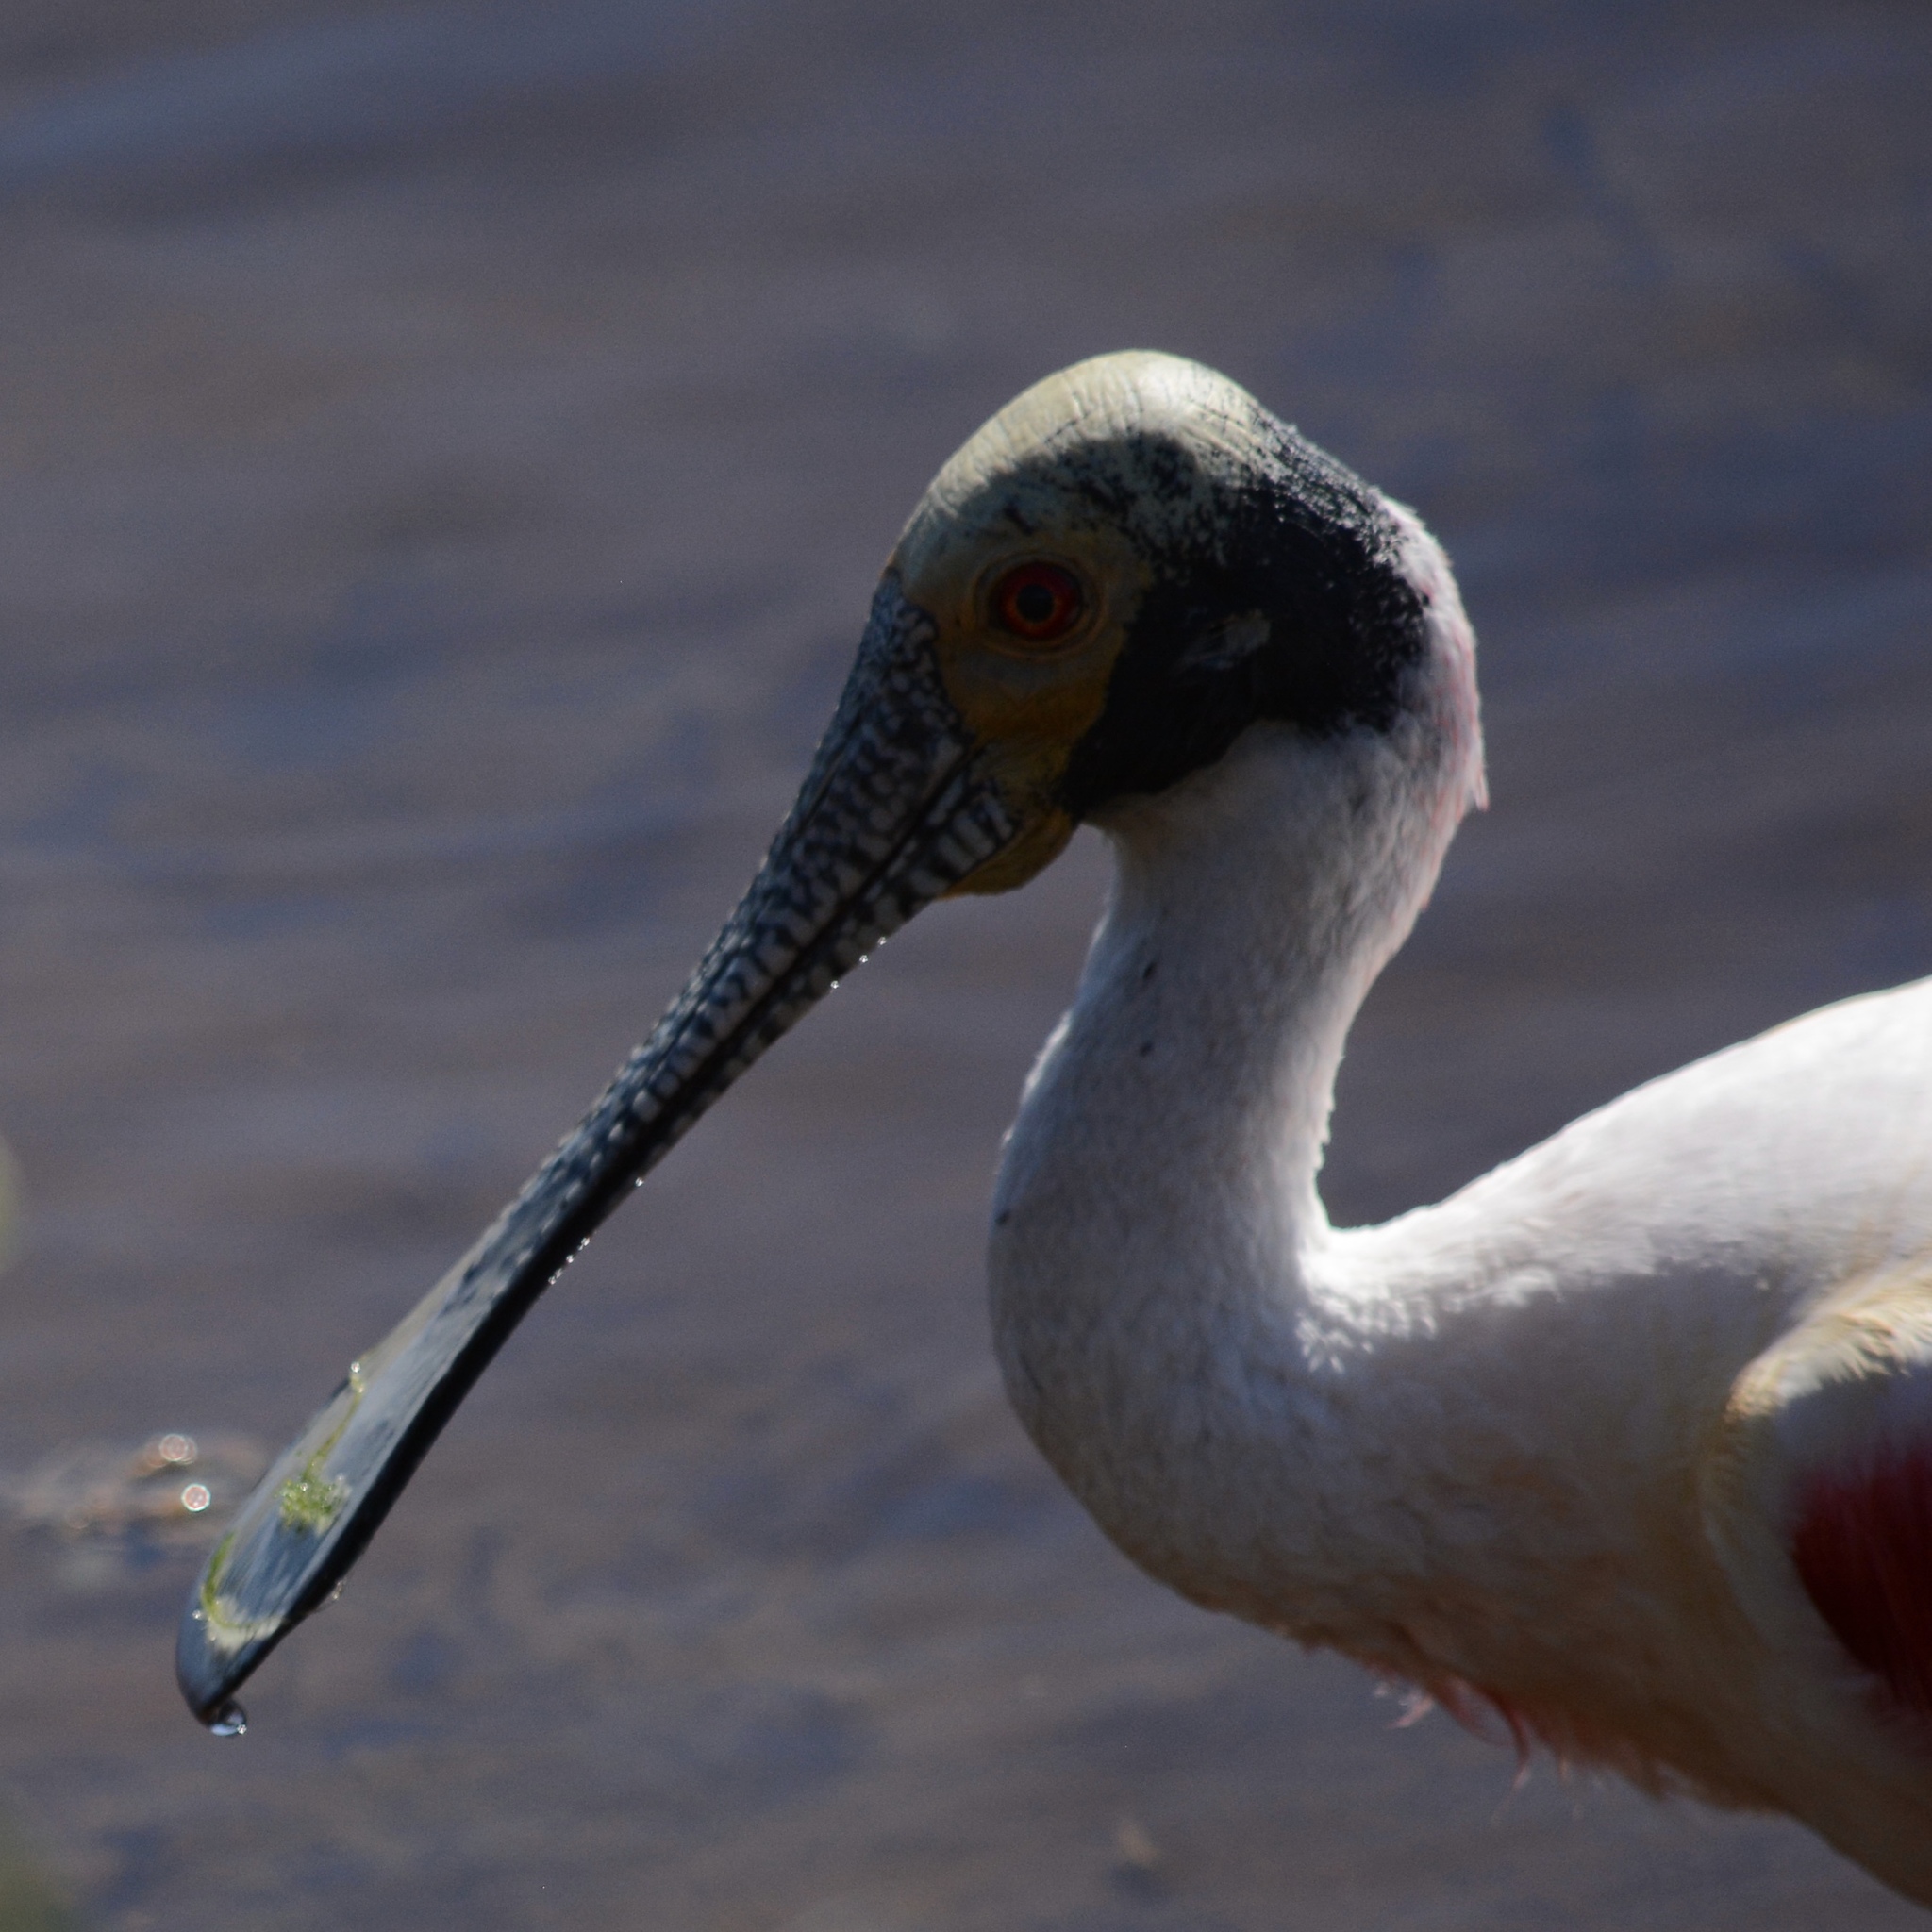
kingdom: Animalia
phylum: Chordata
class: Aves
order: Pelecaniformes
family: Threskiornithidae
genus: Platalea
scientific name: Platalea ajaja
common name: Roseate spoonbill
